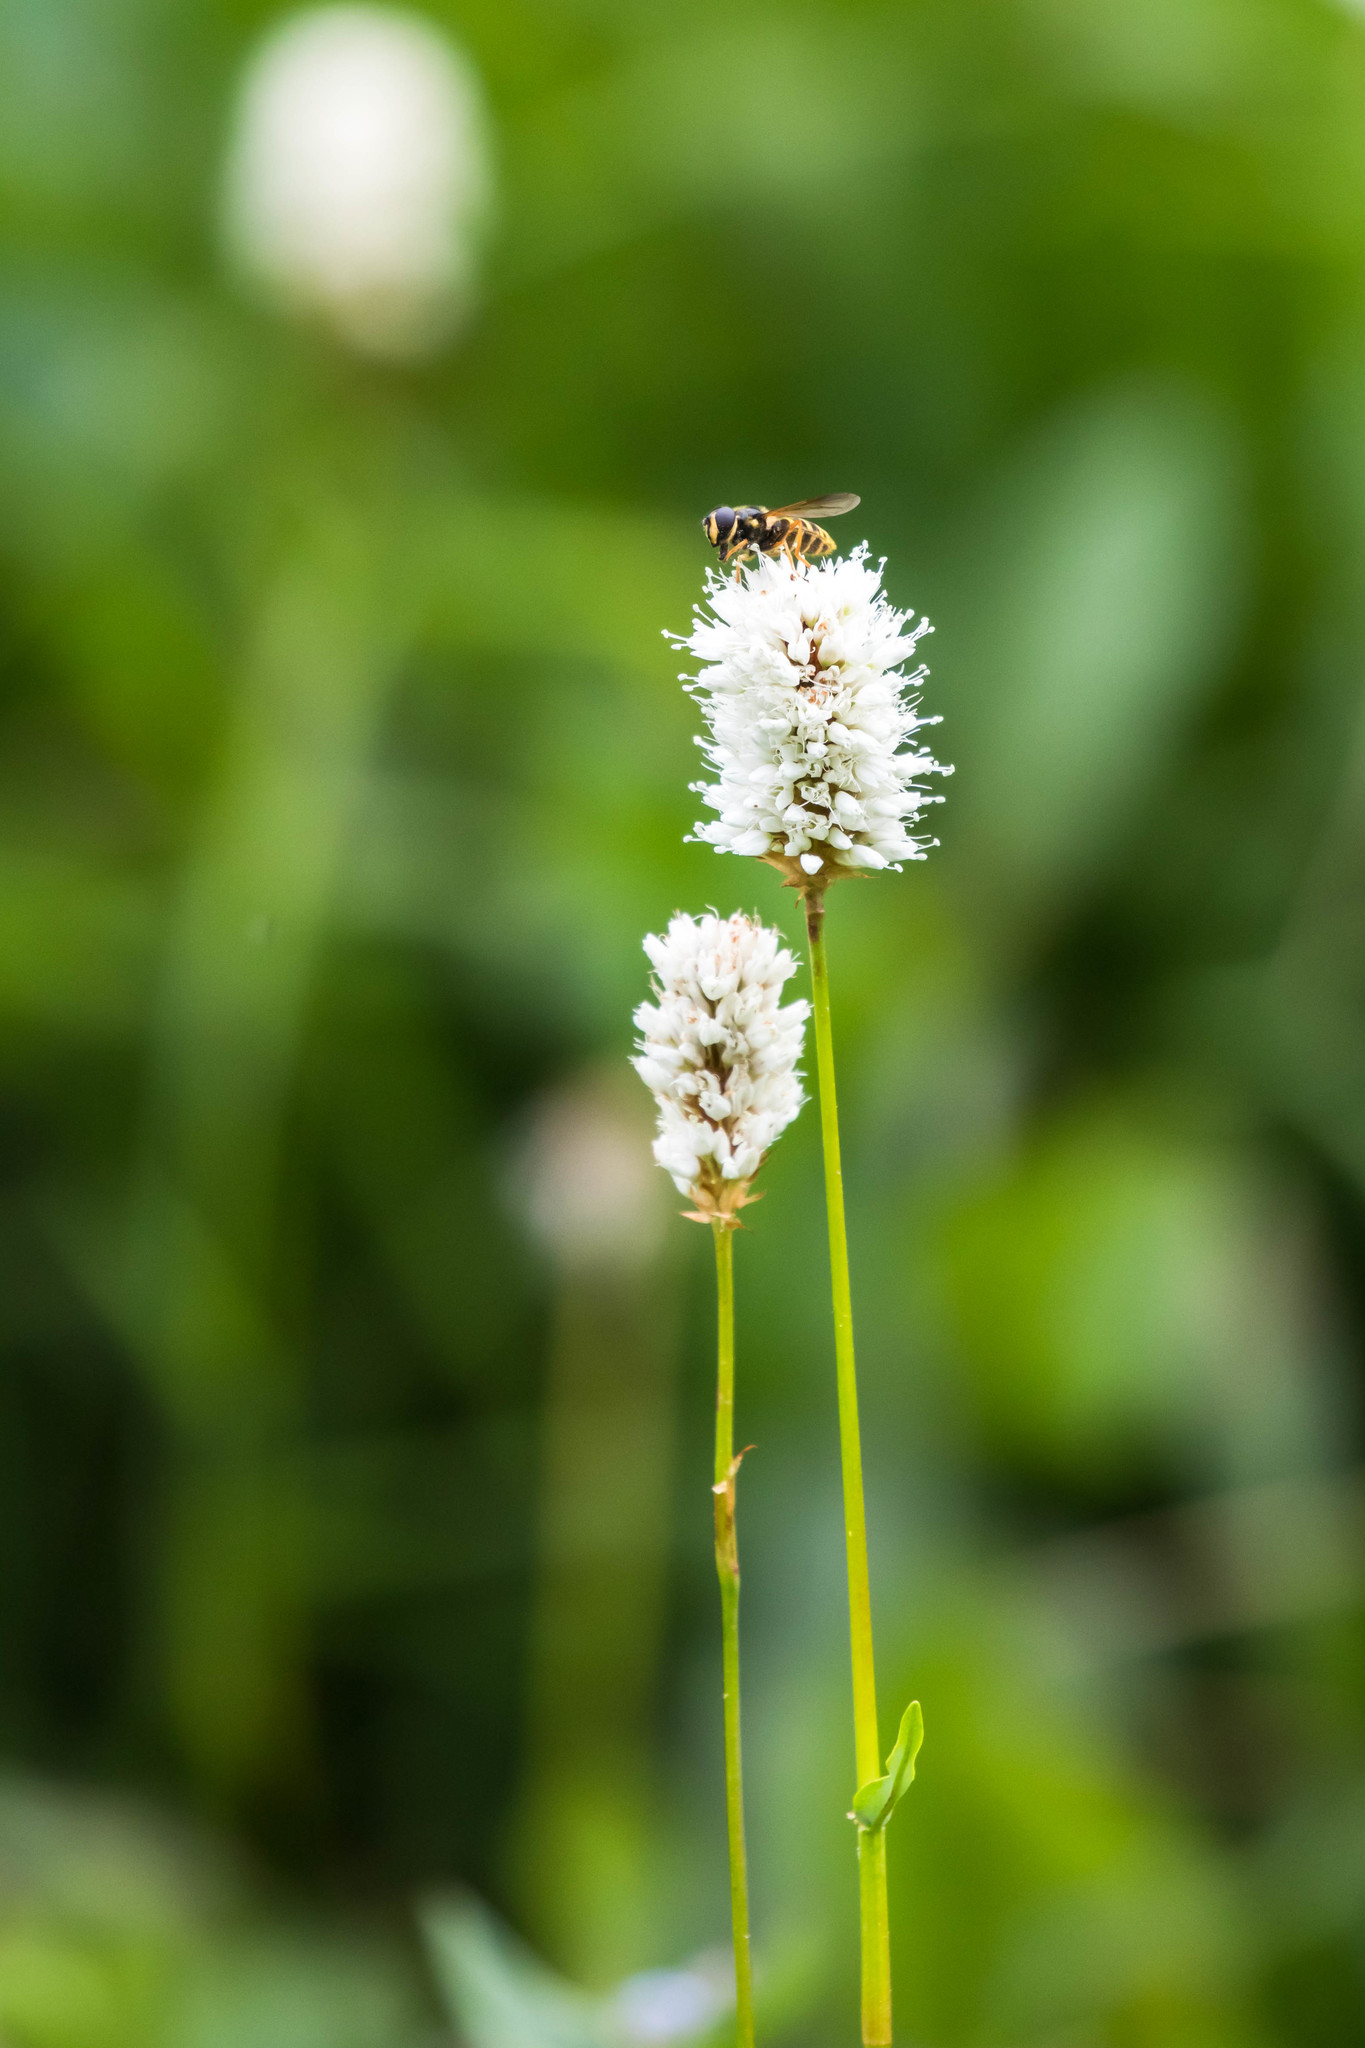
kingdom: Plantae
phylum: Tracheophyta
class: Magnoliopsida
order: Caryophyllales
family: Polygonaceae
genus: Bistorta
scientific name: Bistorta bistortoides
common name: American bistort
